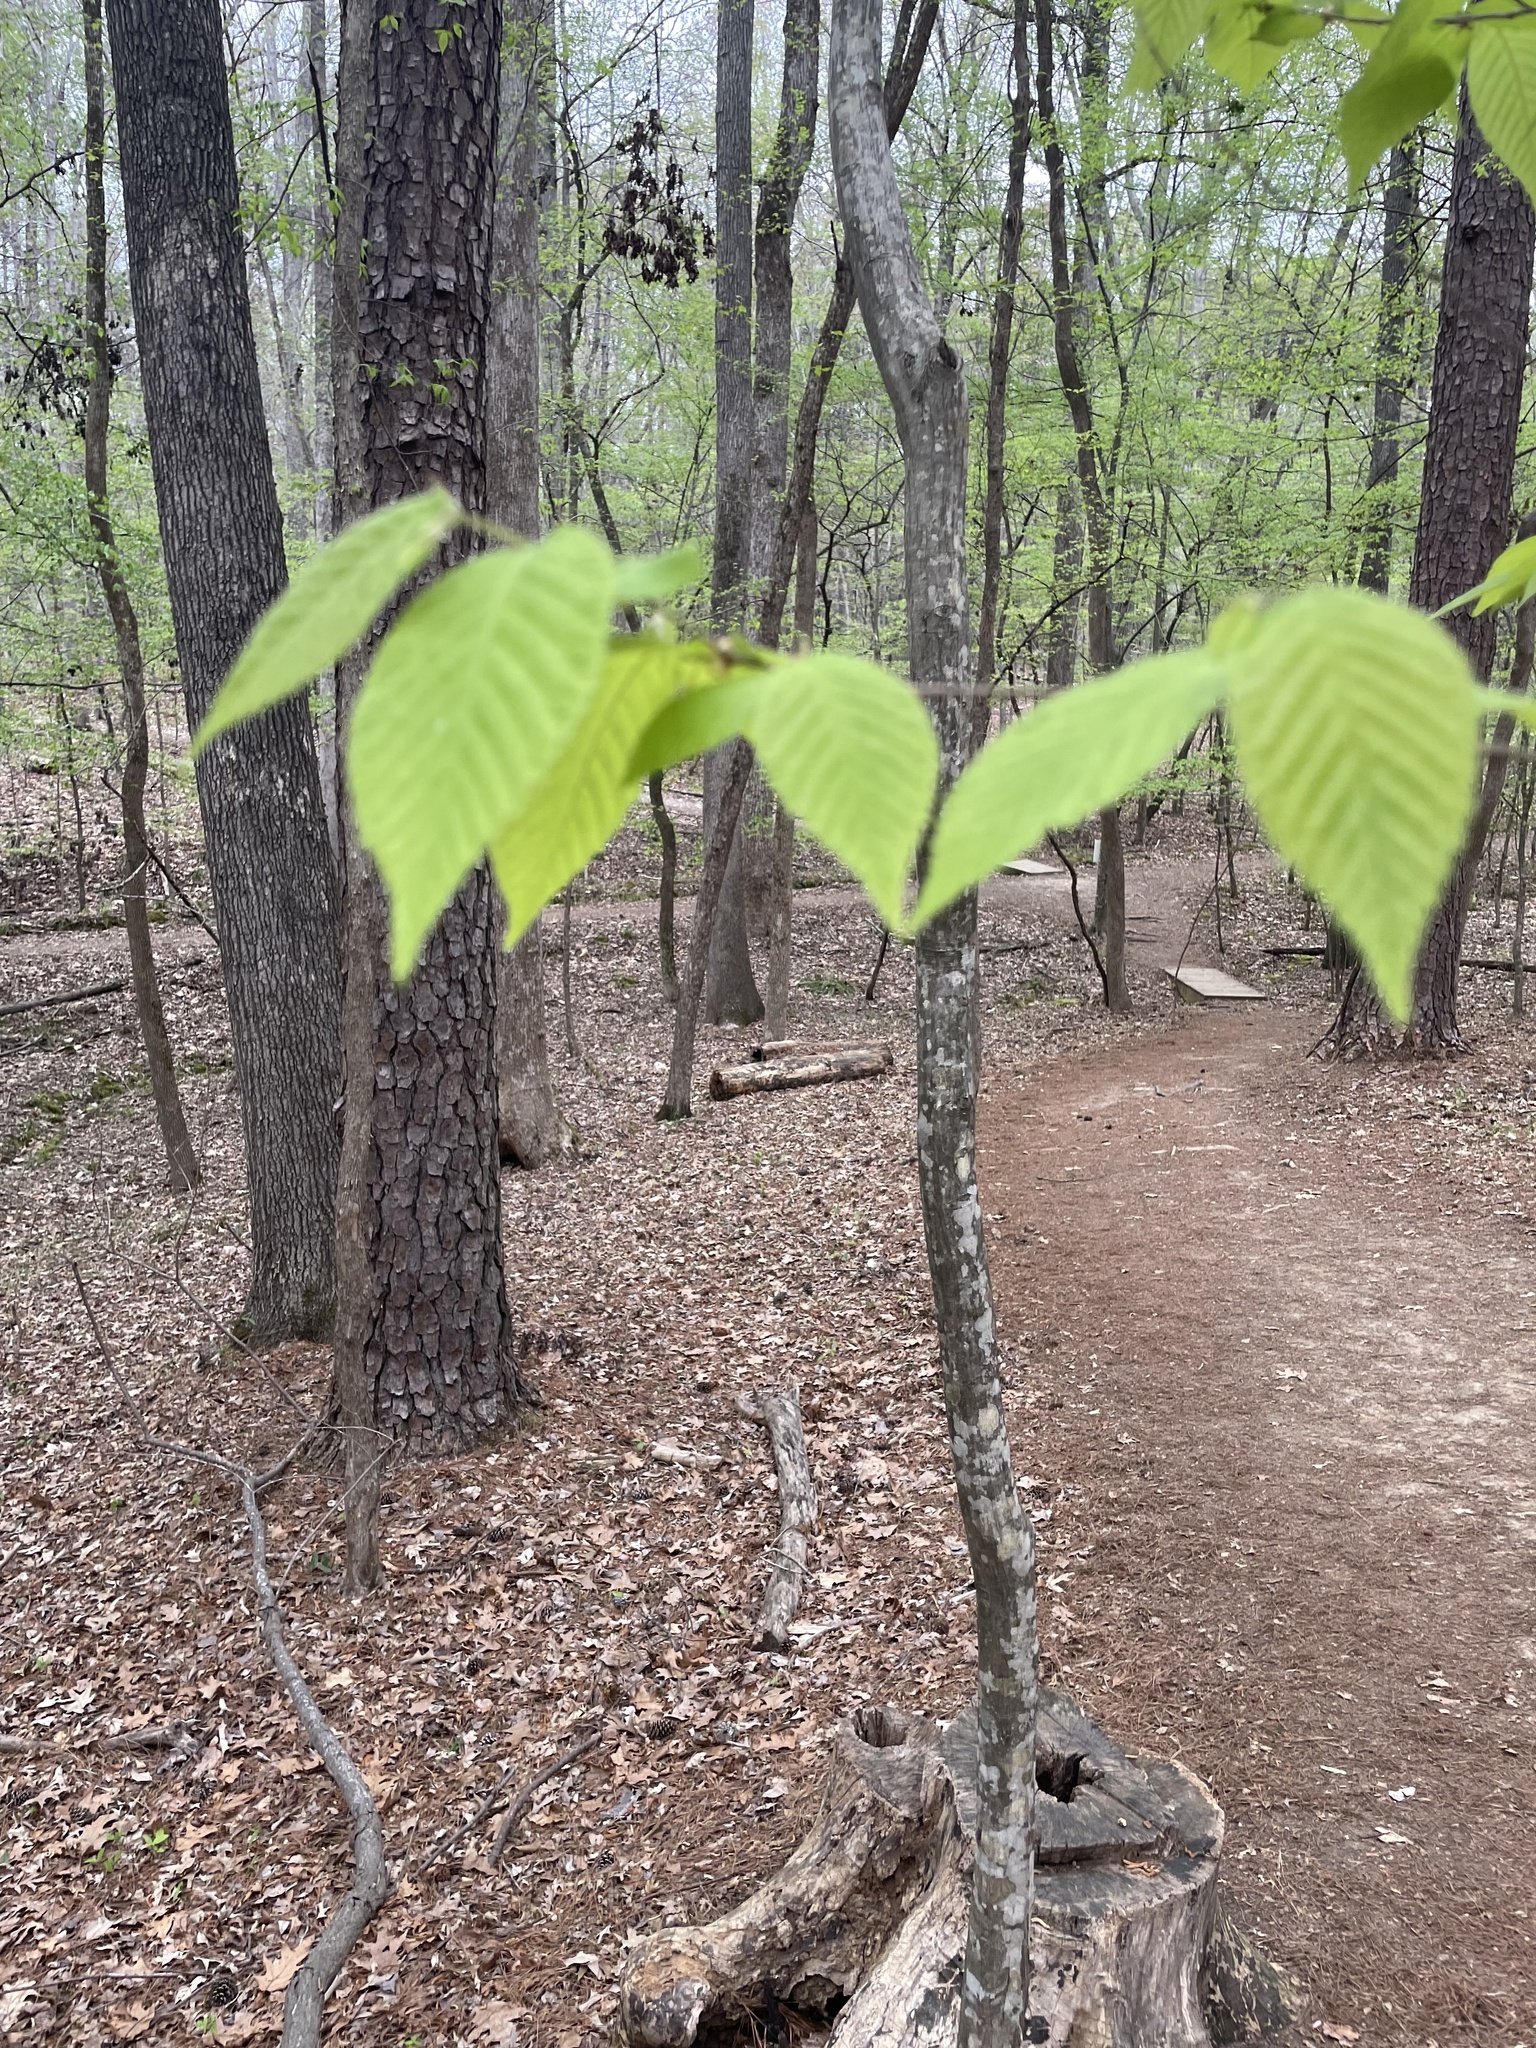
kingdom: Plantae
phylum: Tracheophyta
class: Magnoliopsida
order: Fagales
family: Fagaceae
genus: Fagus
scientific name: Fagus grandifolia
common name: American beech
